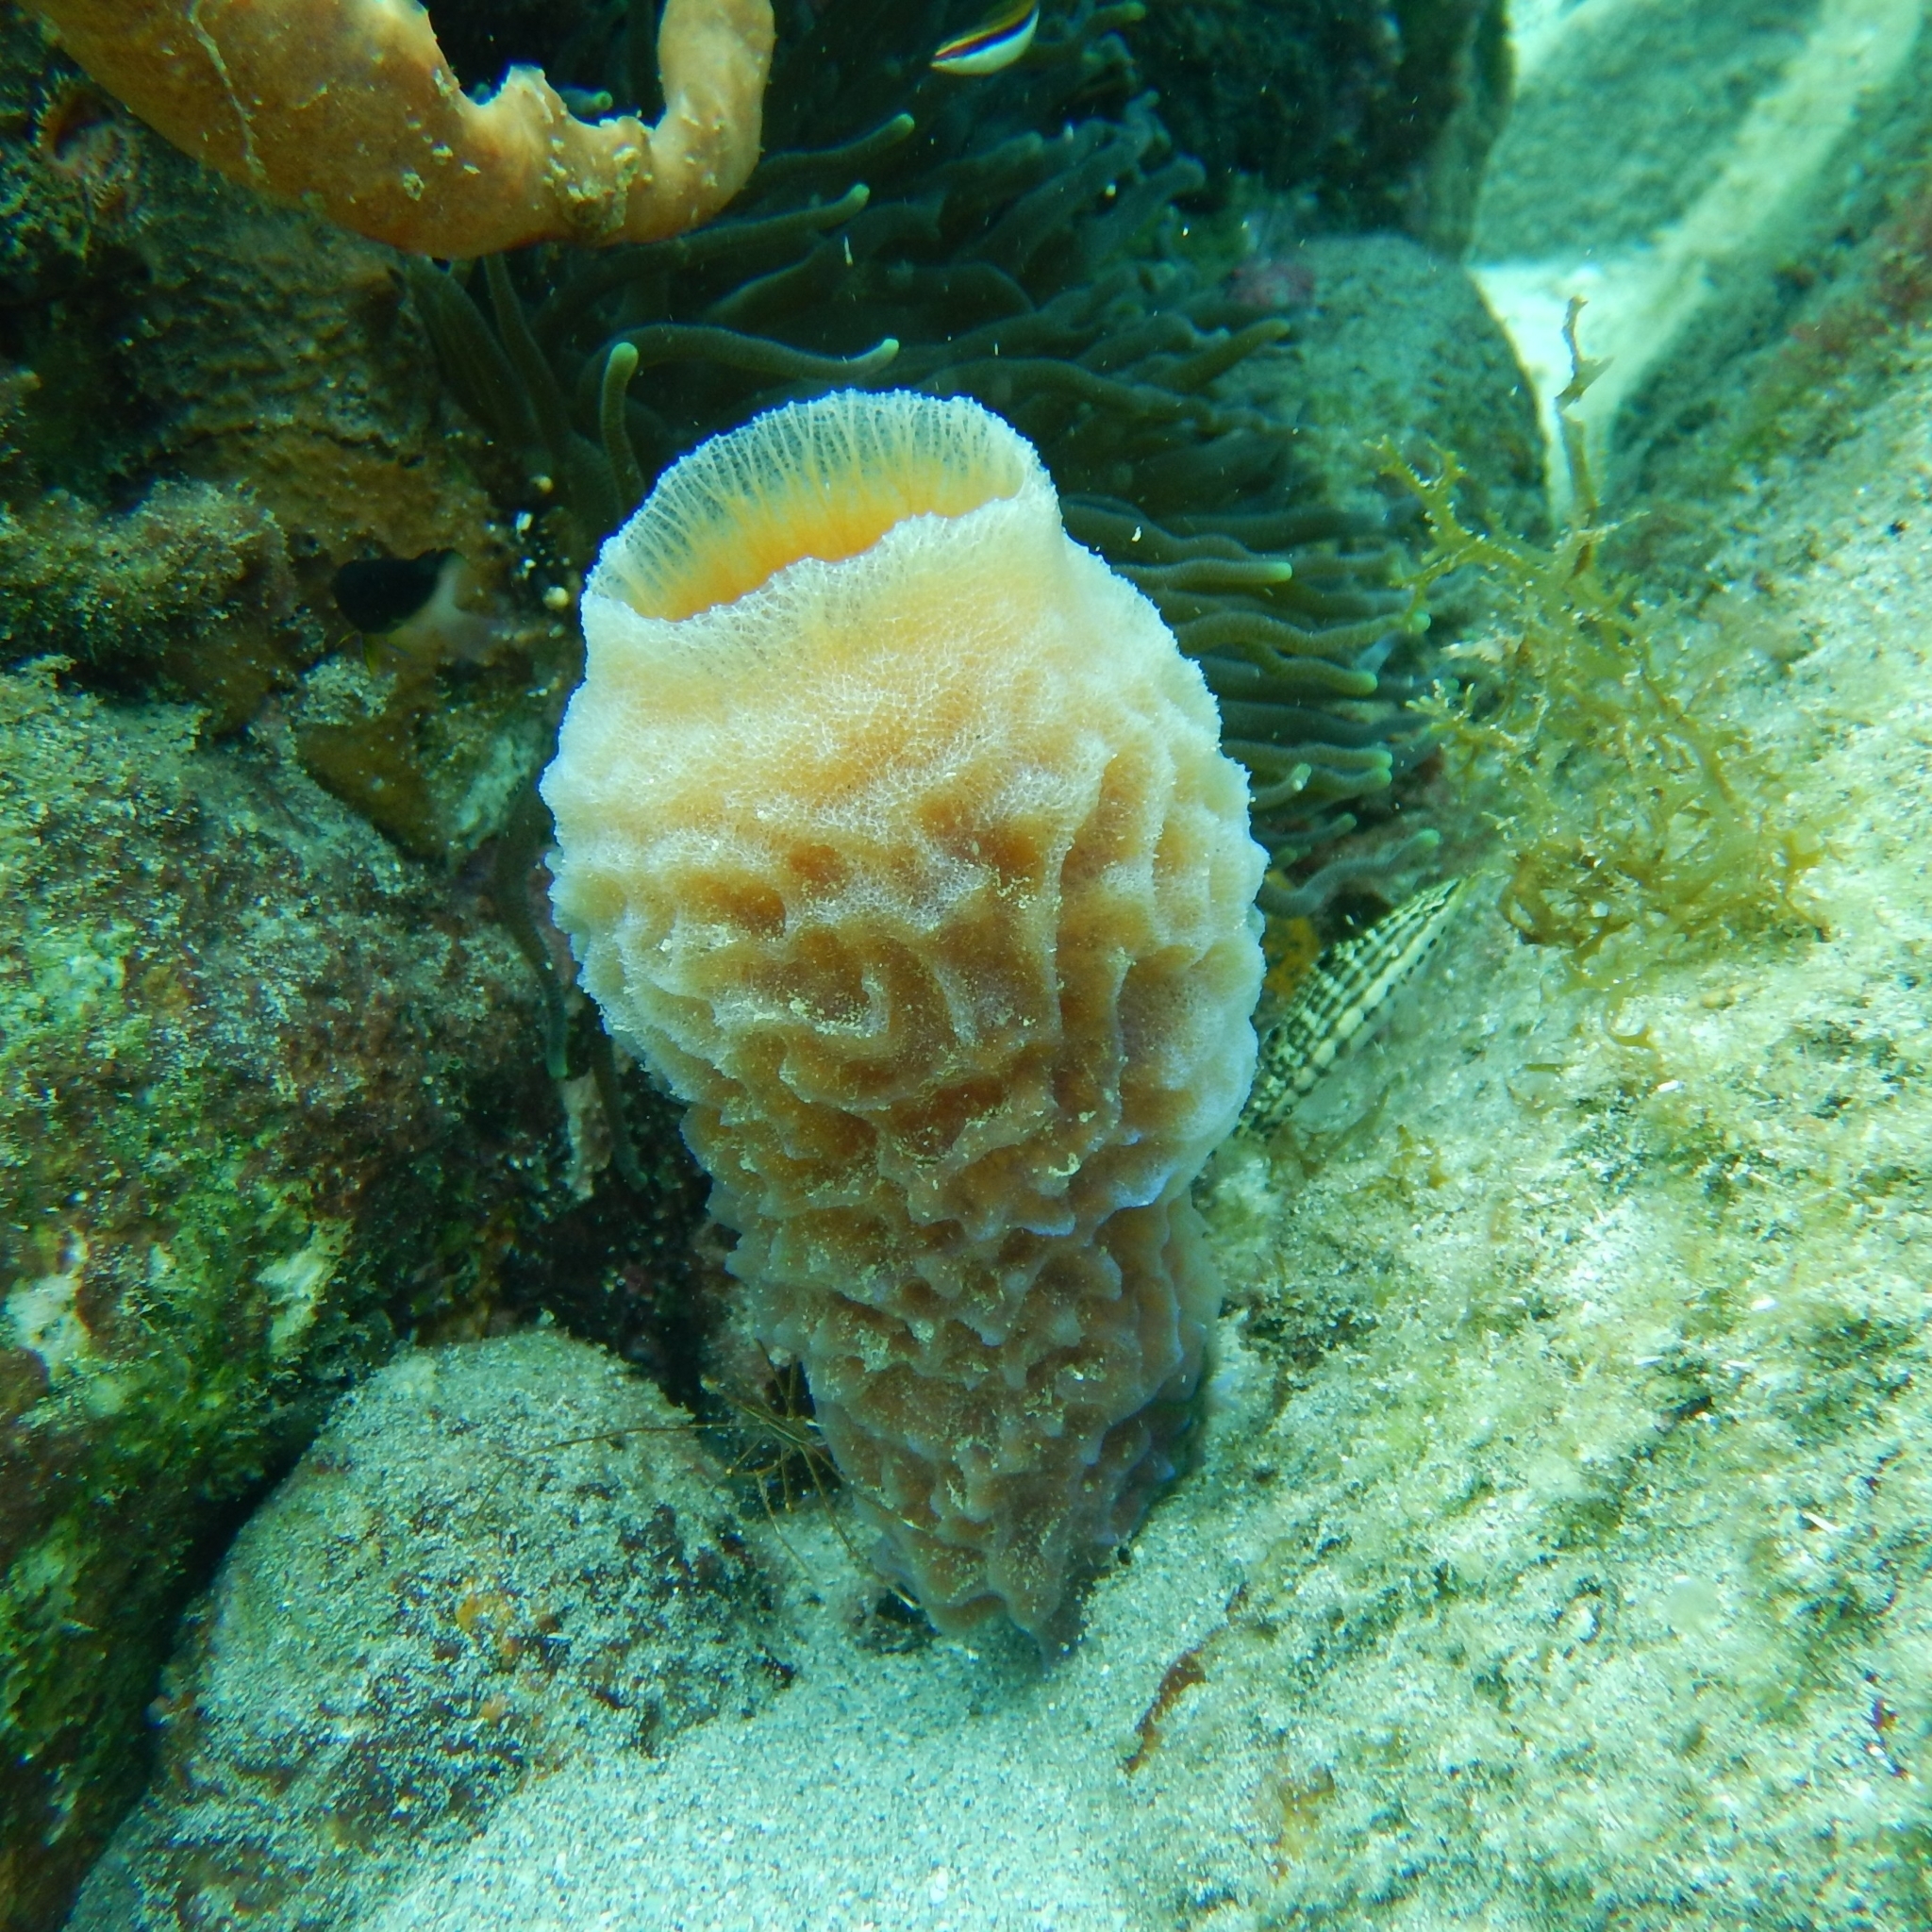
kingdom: Animalia
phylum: Porifera
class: Demospongiae
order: Haplosclerida
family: Callyspongiidae
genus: Callyspongia
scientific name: Callyspongia plicifera
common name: Azure vase sponge
